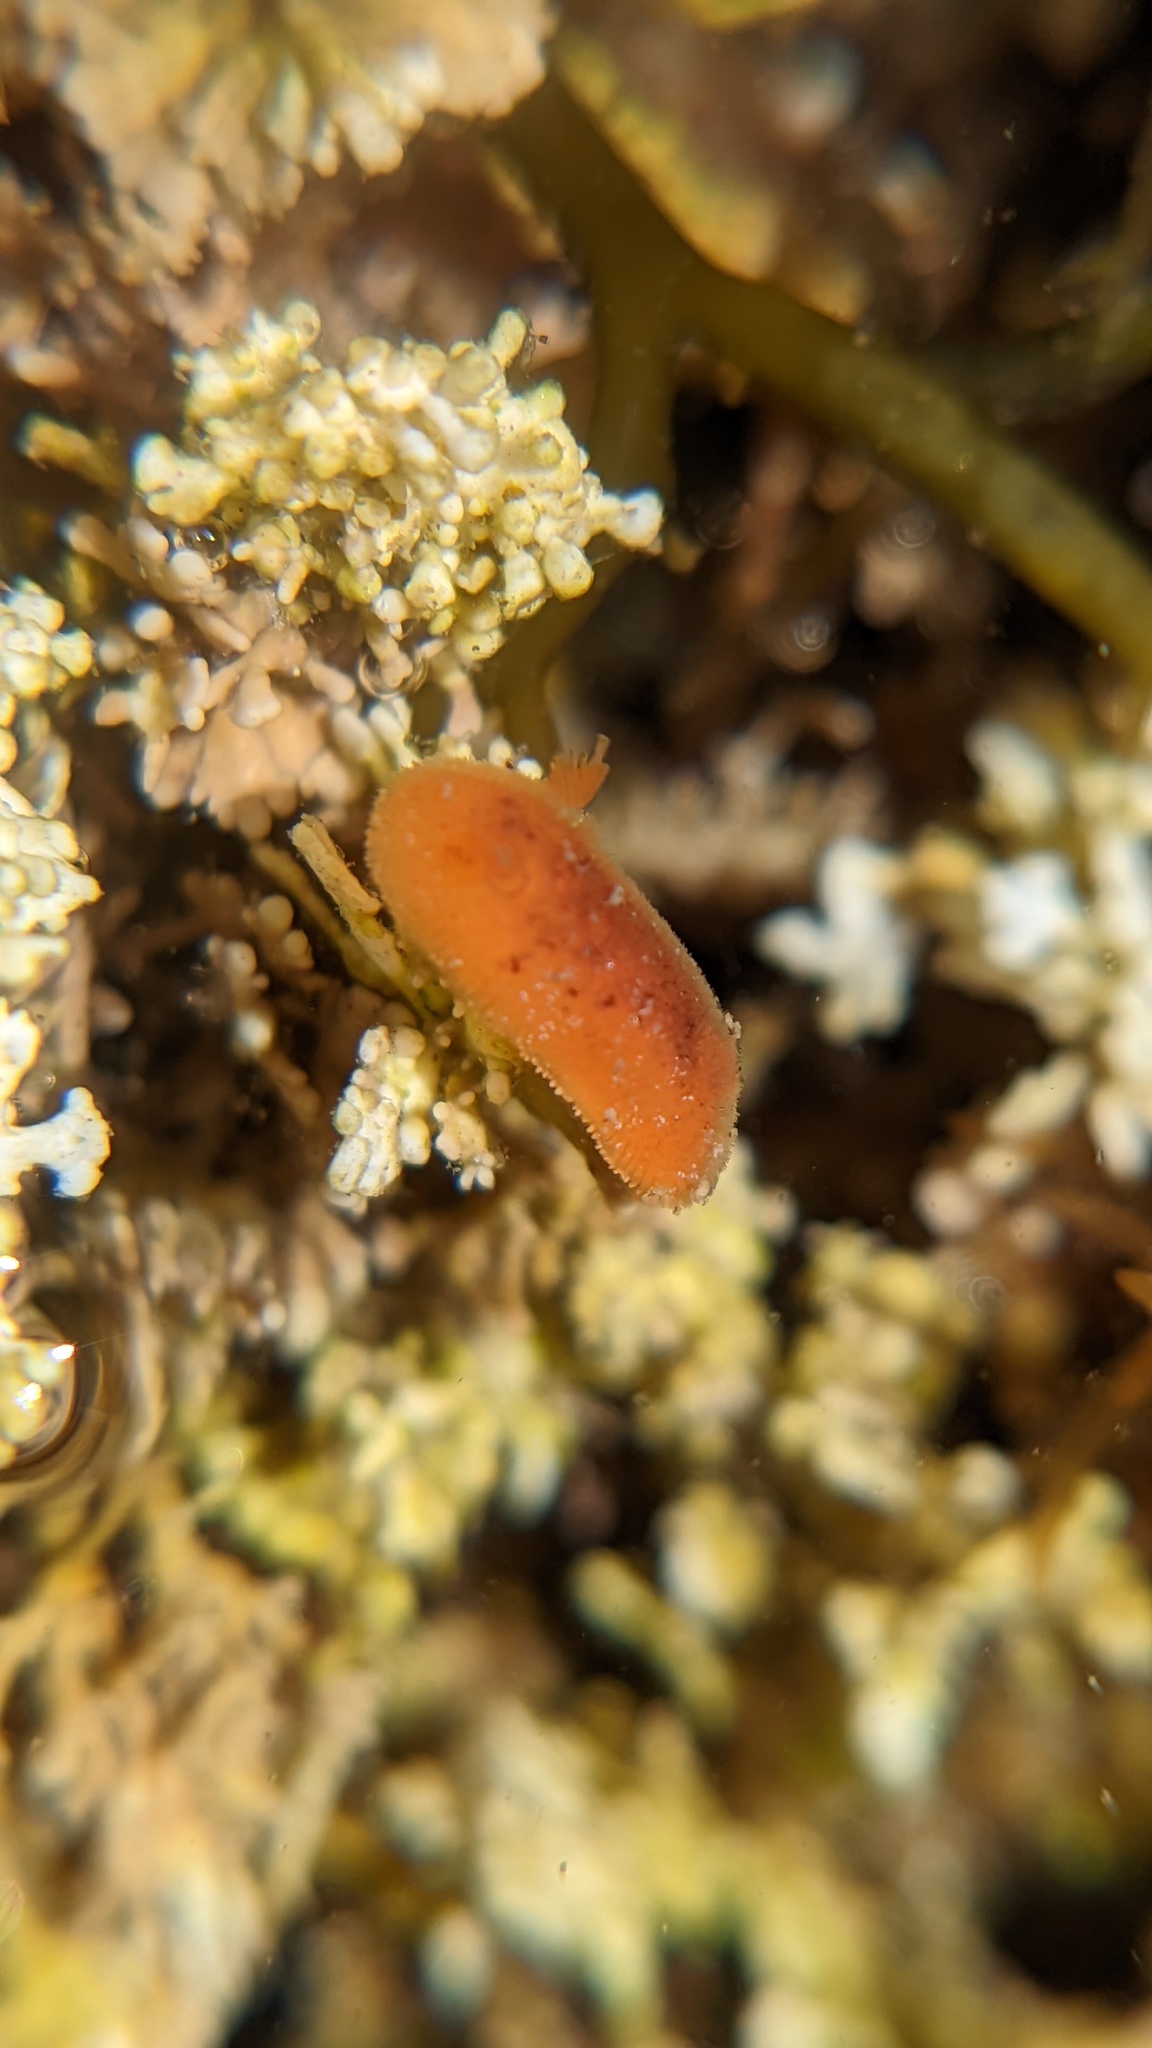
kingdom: Animalia
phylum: Mollusca
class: Gastropoda
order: Nudibranchia
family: Discodorididae
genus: Rostanga
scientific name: Rostanga pulchra
